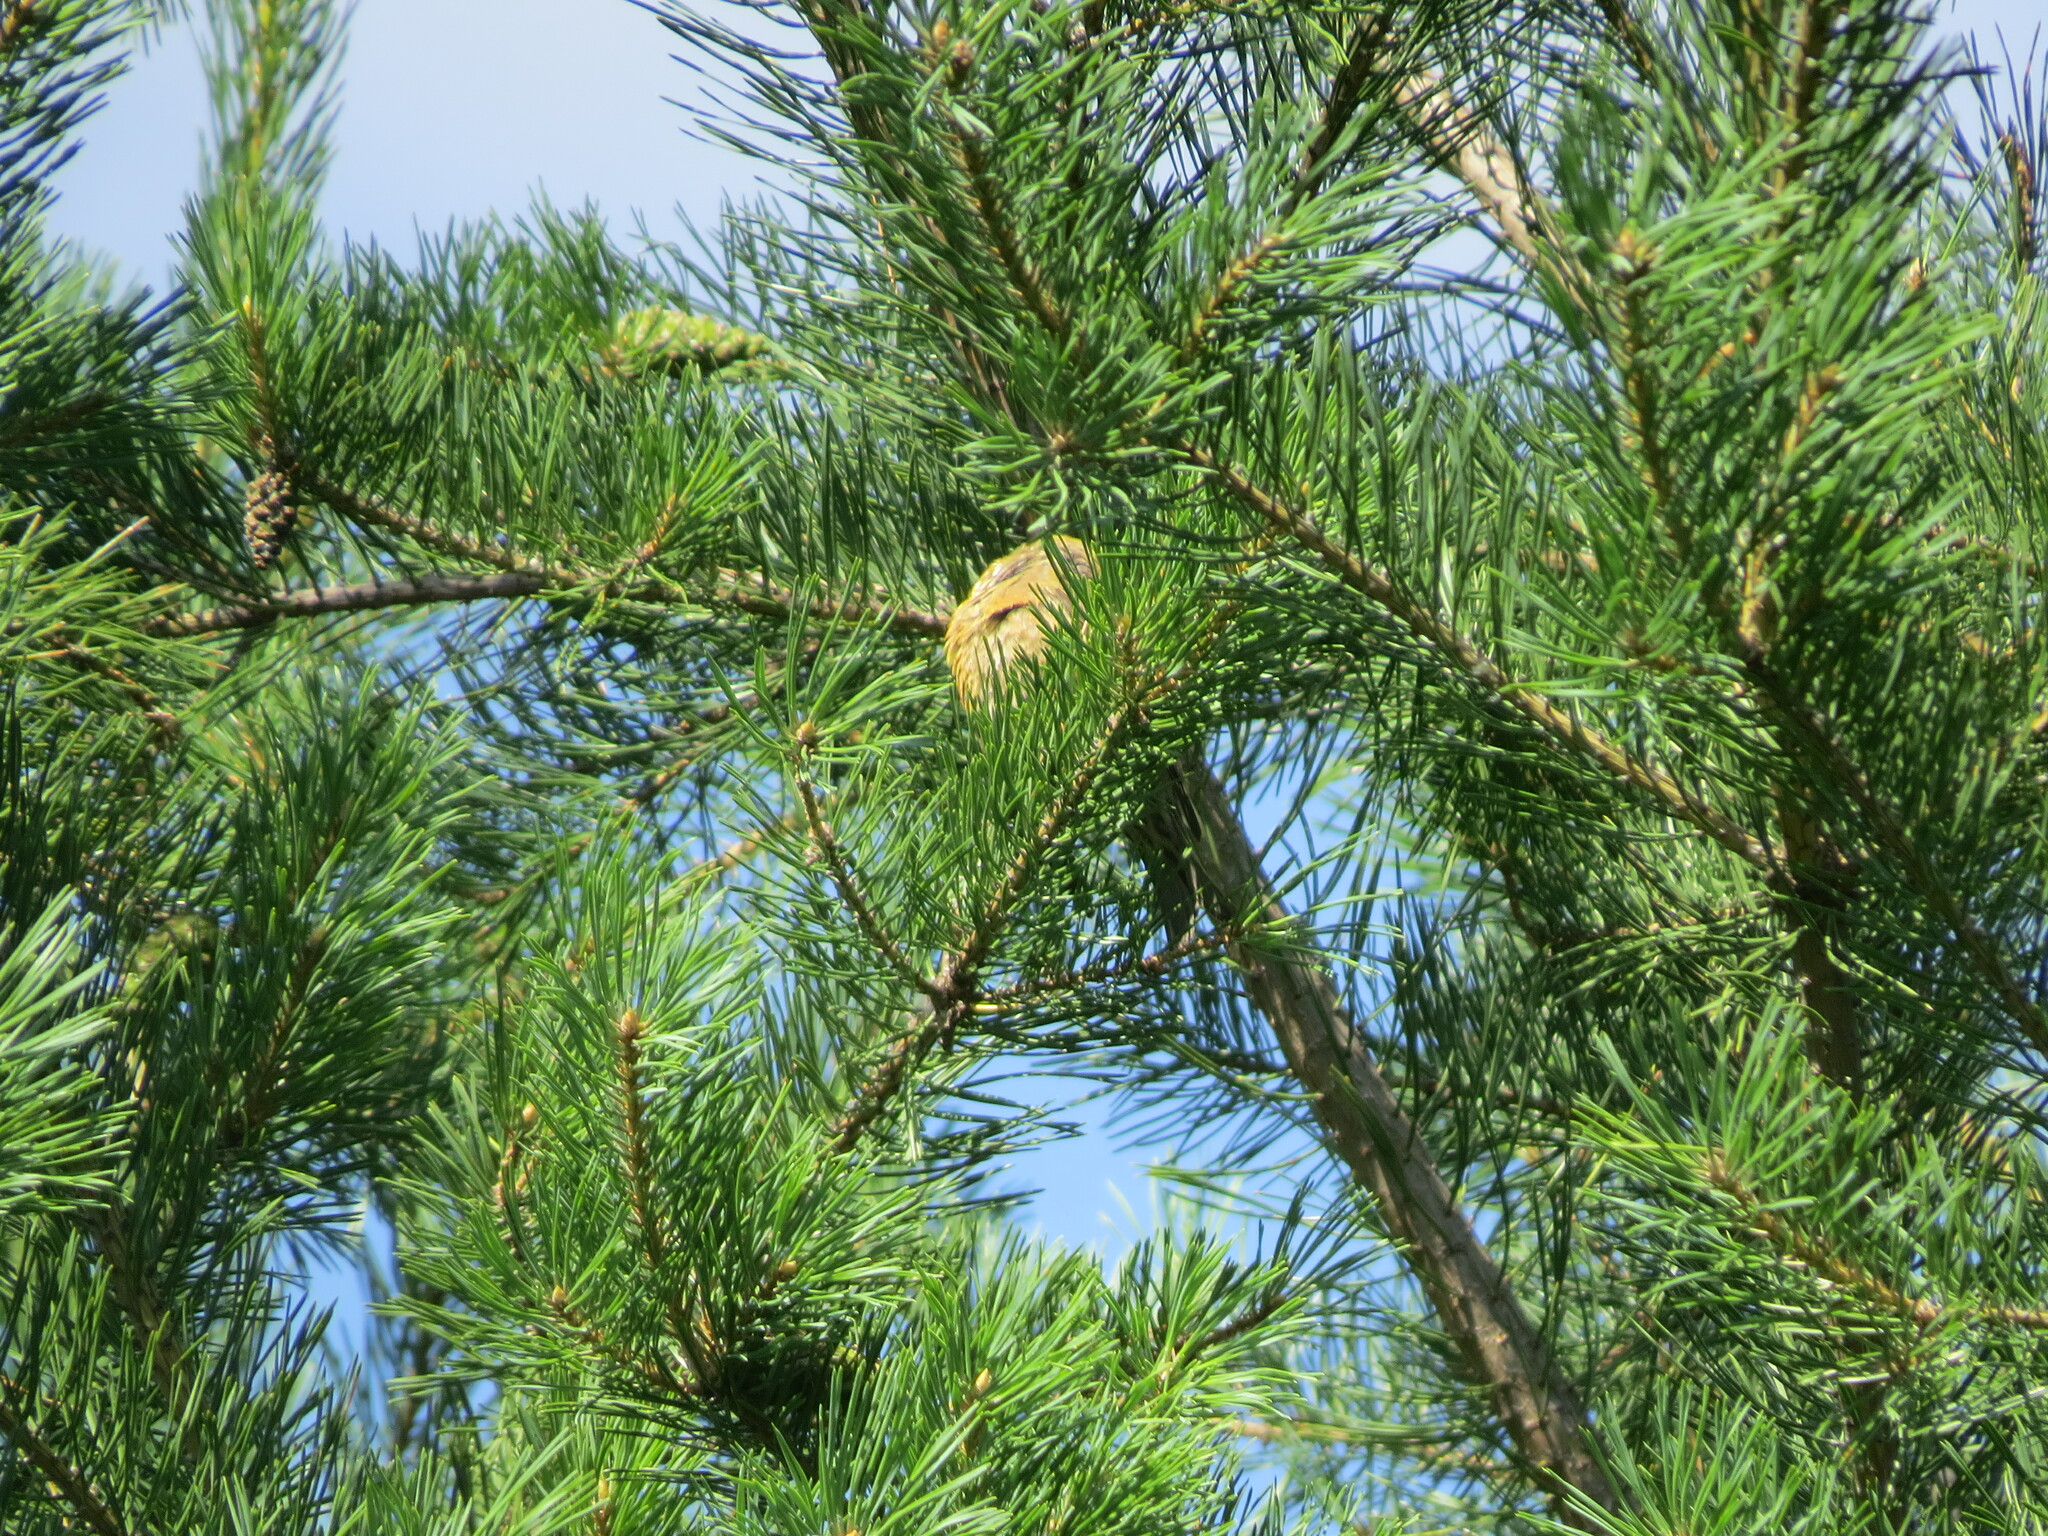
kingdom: Animalia
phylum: Chordata
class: Aves
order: Passeriformes
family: Fringillidae
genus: Loxia
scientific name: Loxia curvirostra
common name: Red crossbill
